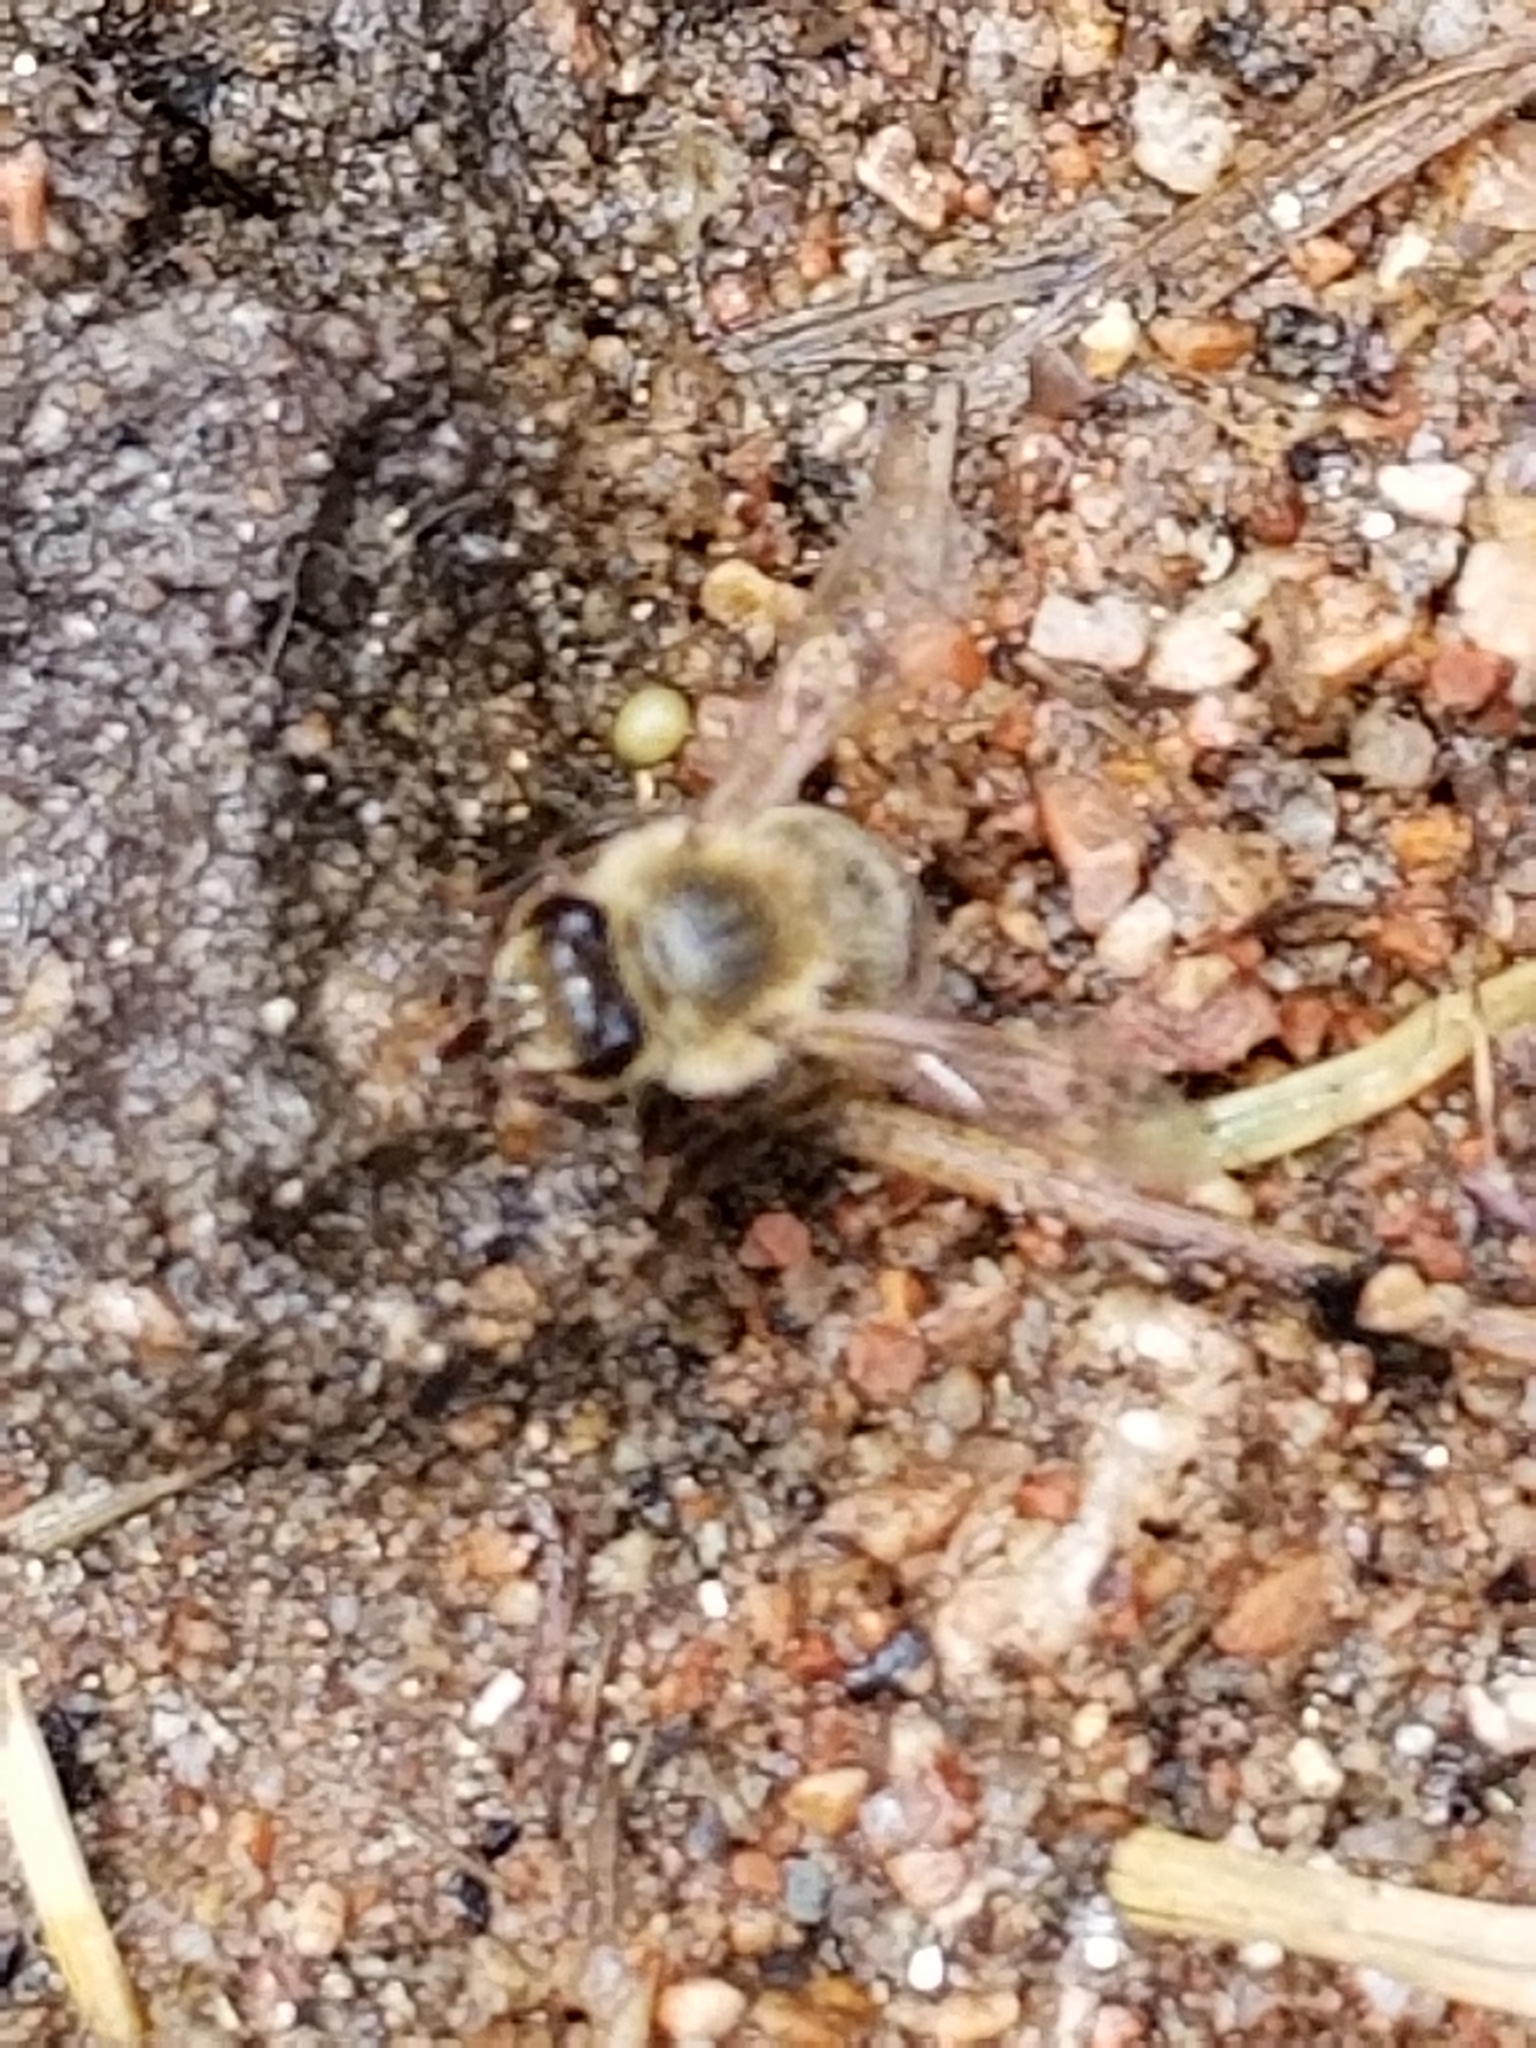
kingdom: Animalia
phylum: Arthropoda
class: Insecta
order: Hymenoptera
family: Apidae
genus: Apis
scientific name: Apis mellifera
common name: Honey bee
